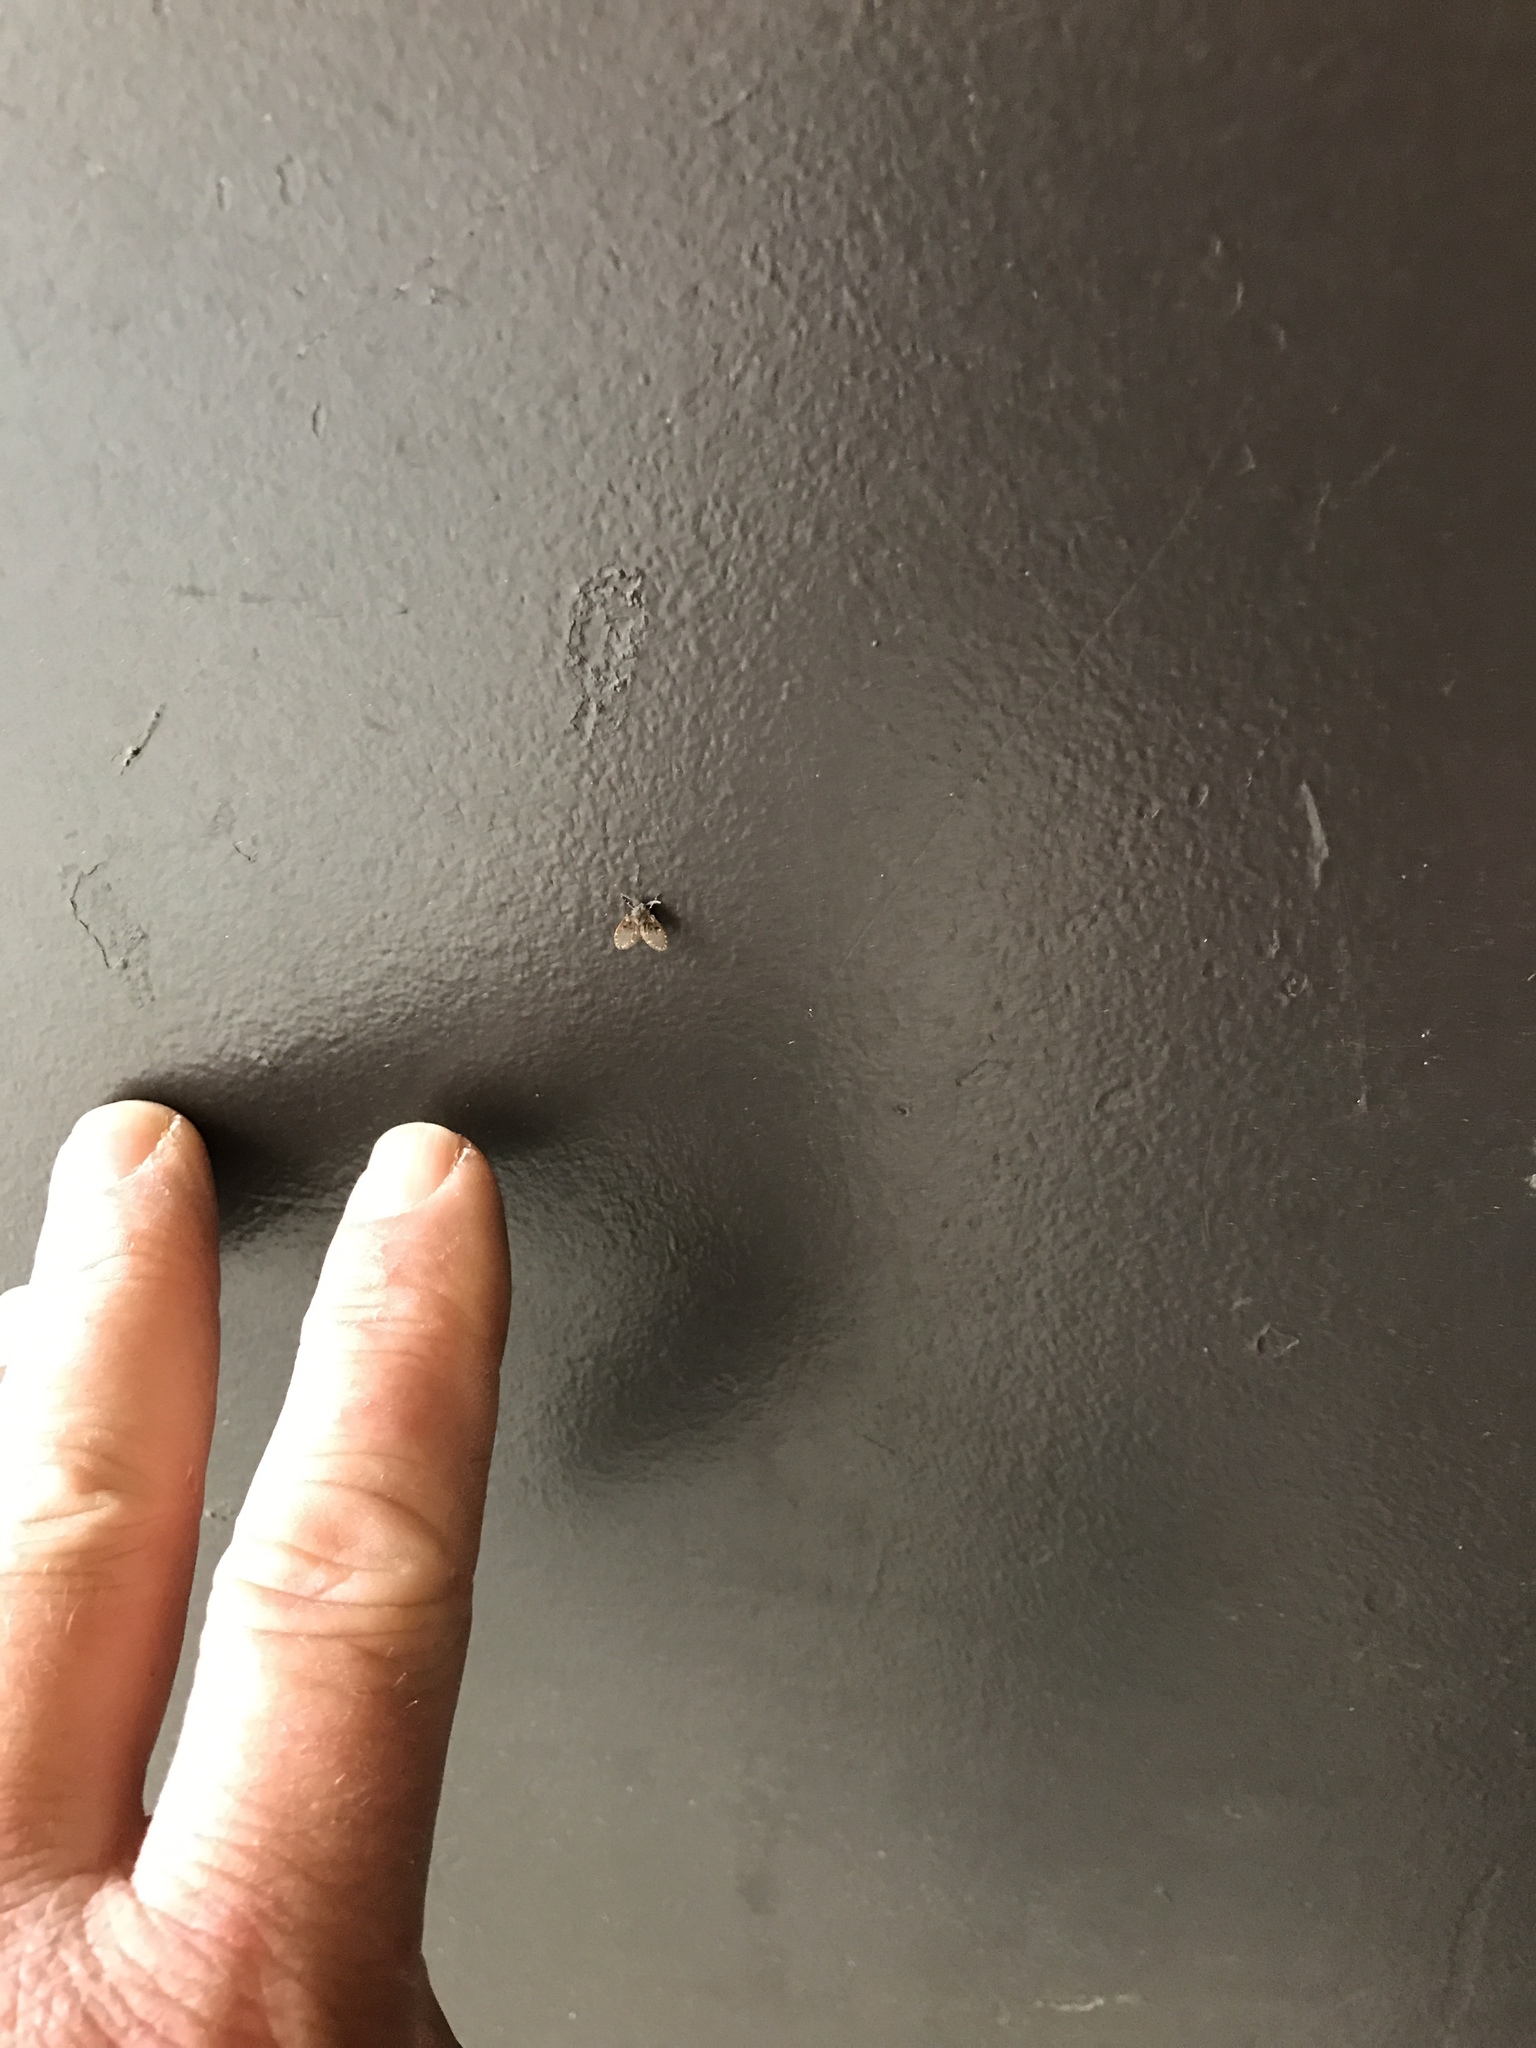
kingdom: Animalia
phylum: Arthropoda
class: Insecta
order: Diptera
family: Psychodidae
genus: Clogmia
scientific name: Clogmia albipunctatus
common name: White-spotted moth fly
